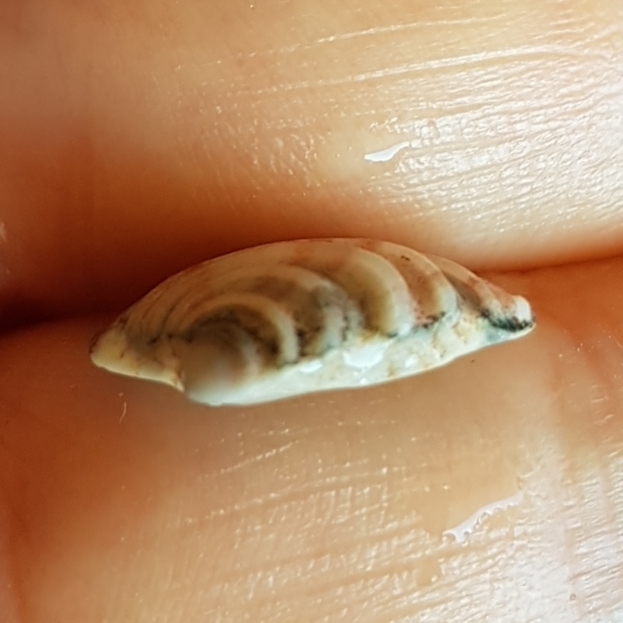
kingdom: Animalia
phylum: Mollusca
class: Bivalvia
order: Venerida
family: Veneridae
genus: Clausinella
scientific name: Clausinella fasciata
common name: Banded venus
